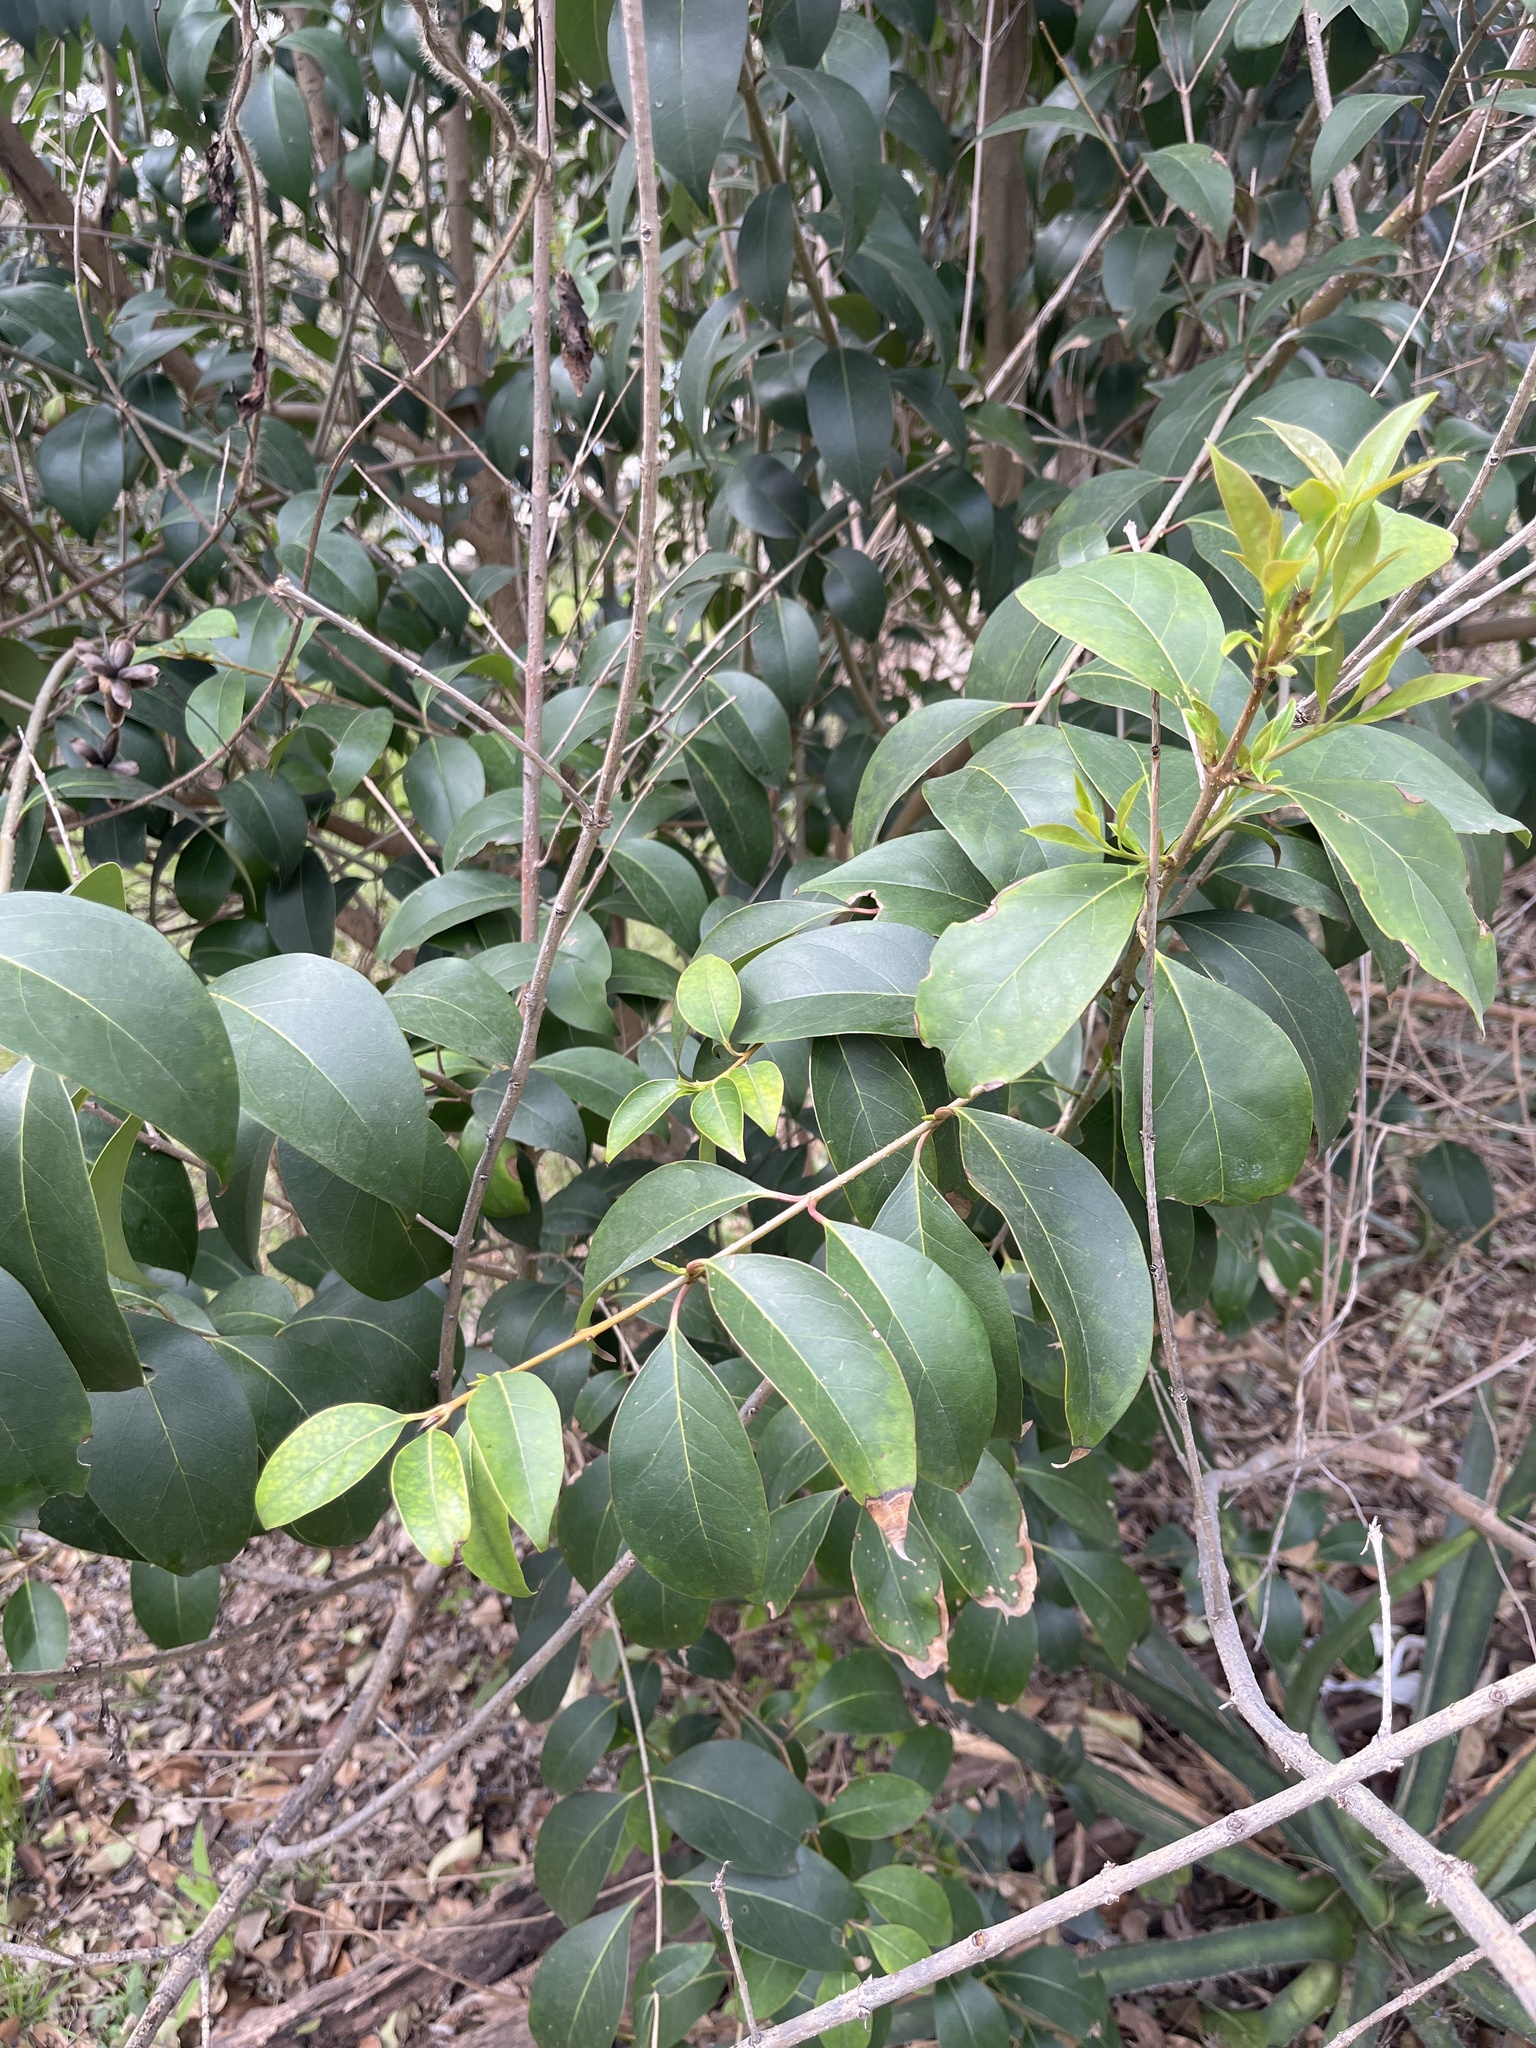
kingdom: Plantae
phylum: Tracheophyta
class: Magnoliopsida
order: Lamiales
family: Oleaceae
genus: Ligustrum
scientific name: Ligustrum lucidum
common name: Glossy privet
